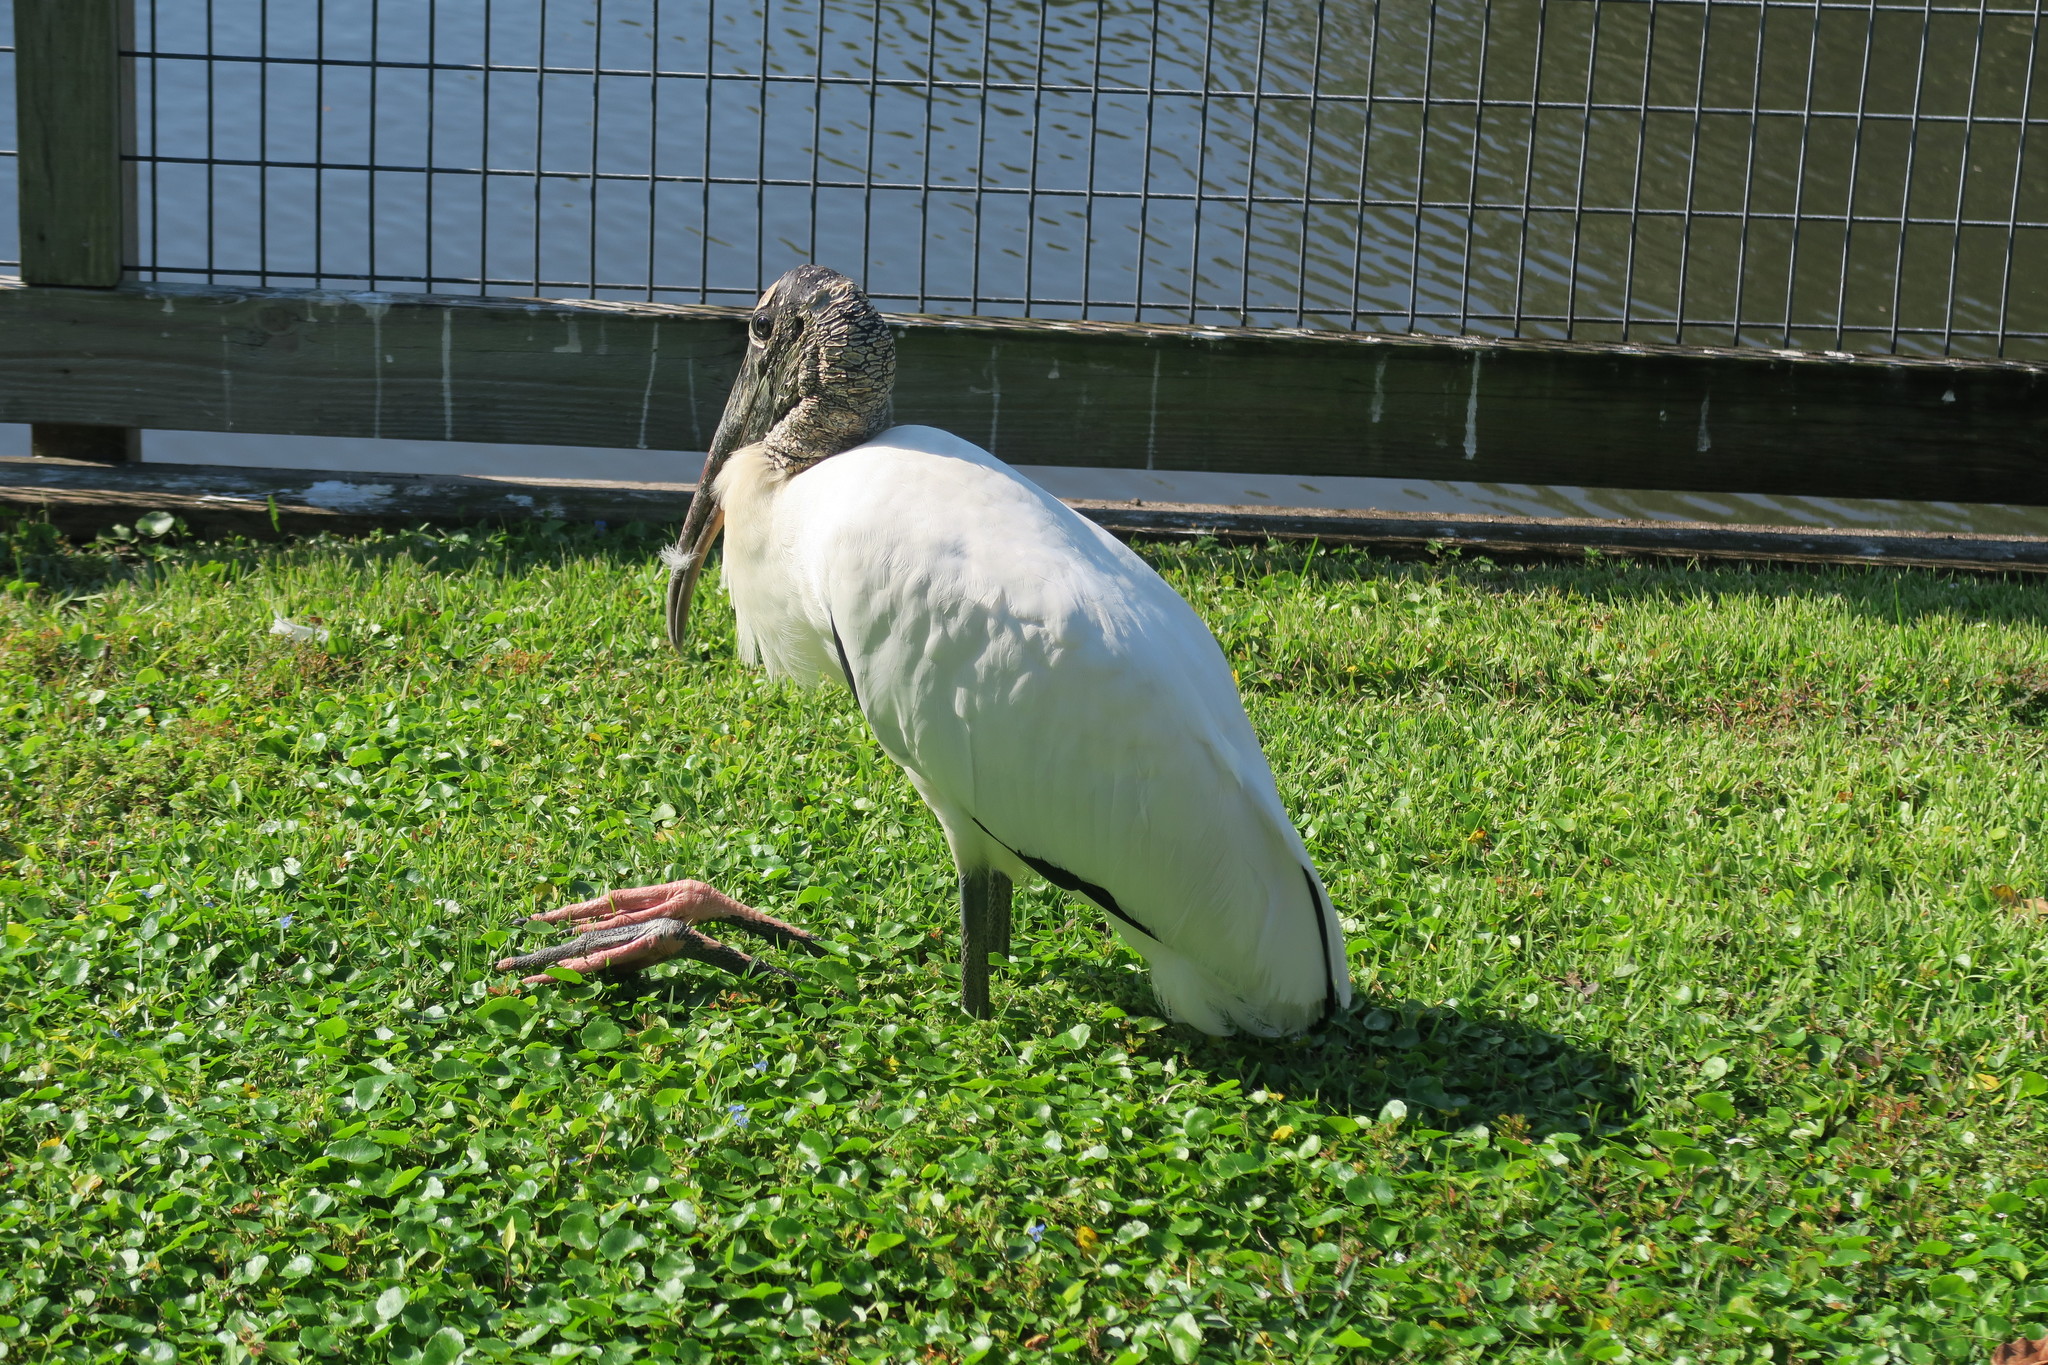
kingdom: Animalia
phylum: Chordata
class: Aves
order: Ciconiiformes
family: Ciconiidae
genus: Mycteria
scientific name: Mycteria americana
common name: Wood stork
